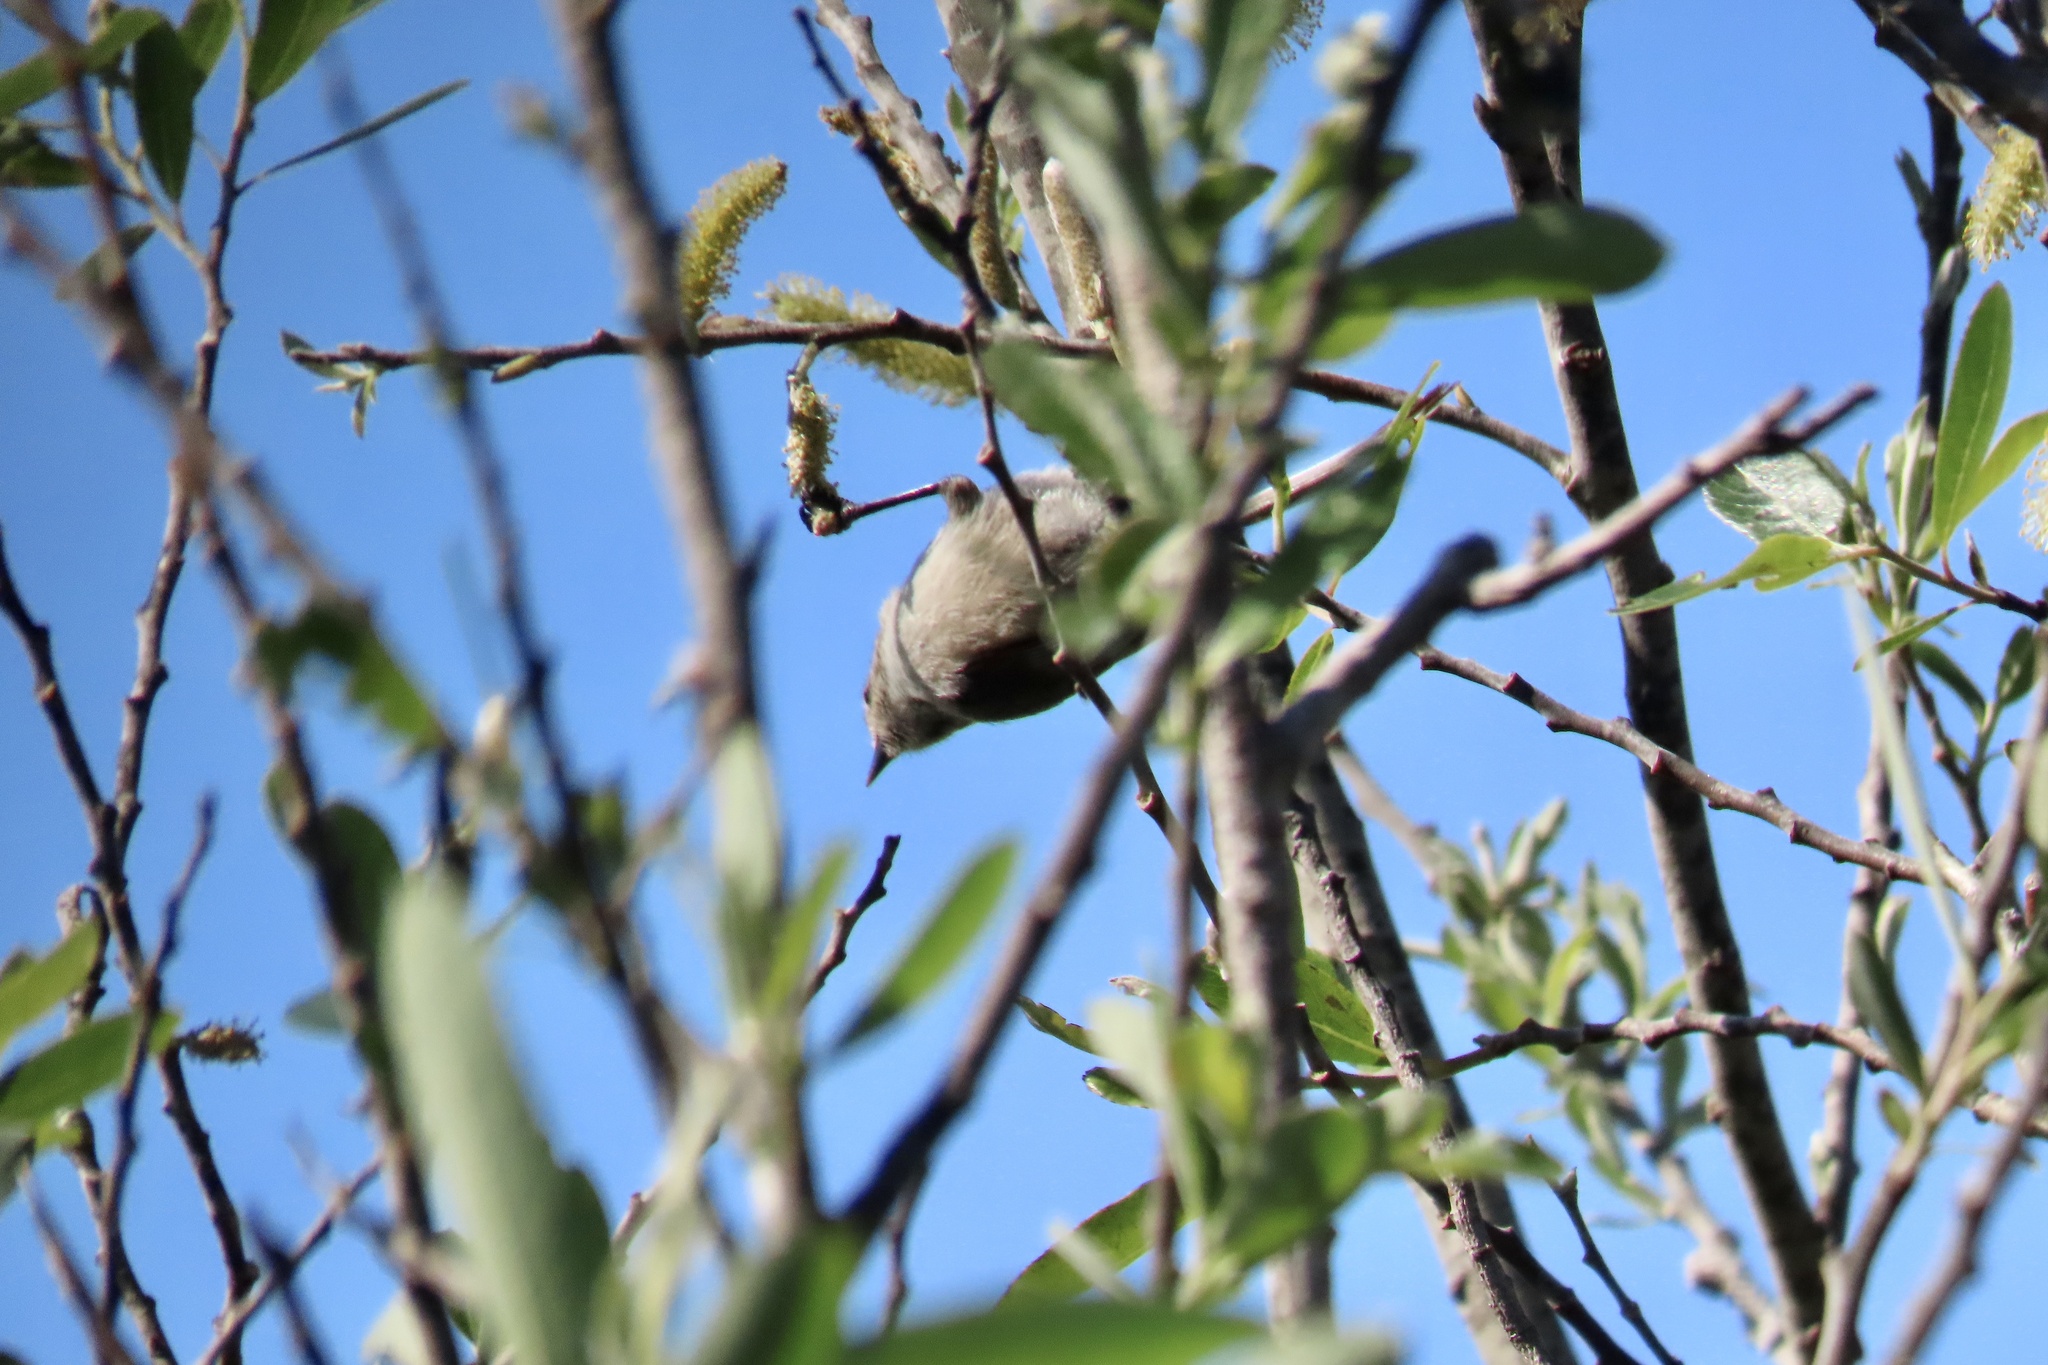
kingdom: Animalia
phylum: Chordata
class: Aves
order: Passeriformes
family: Aegithalidae
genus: Psaltriparus
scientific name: Psaltriparus minimus
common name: American bushtit
